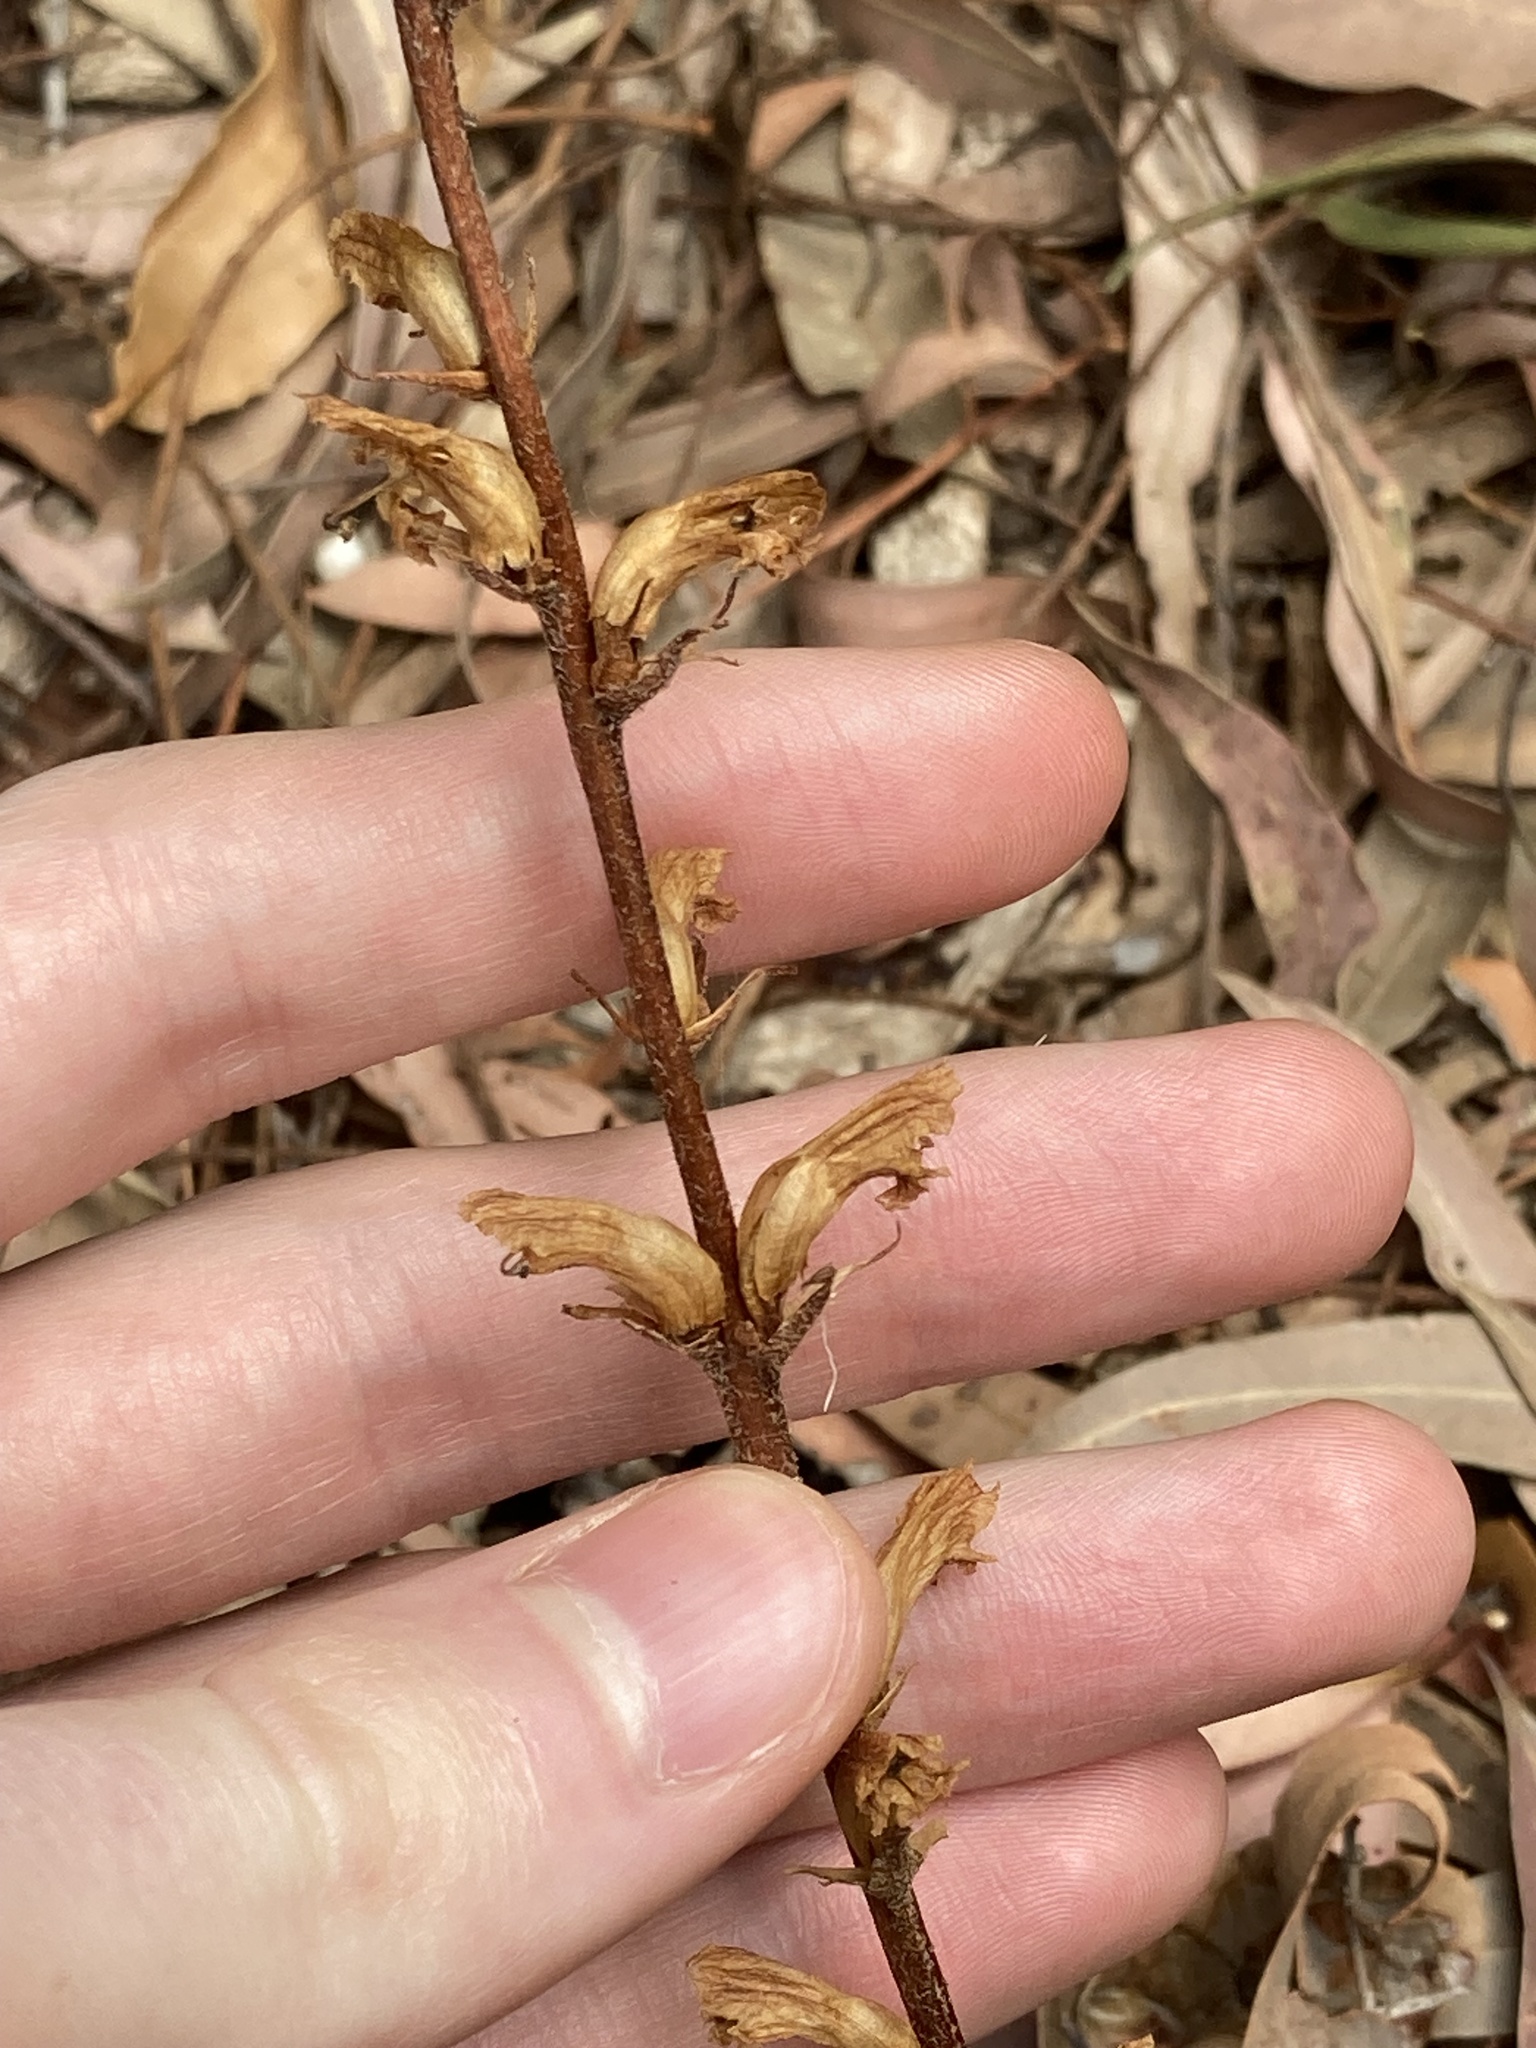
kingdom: Plantae
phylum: Tracheophyta
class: Magnoliopsida
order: Lamiales
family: Orobanchaceae
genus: Orobanche
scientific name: Orobanche minor
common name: Common broomrape
